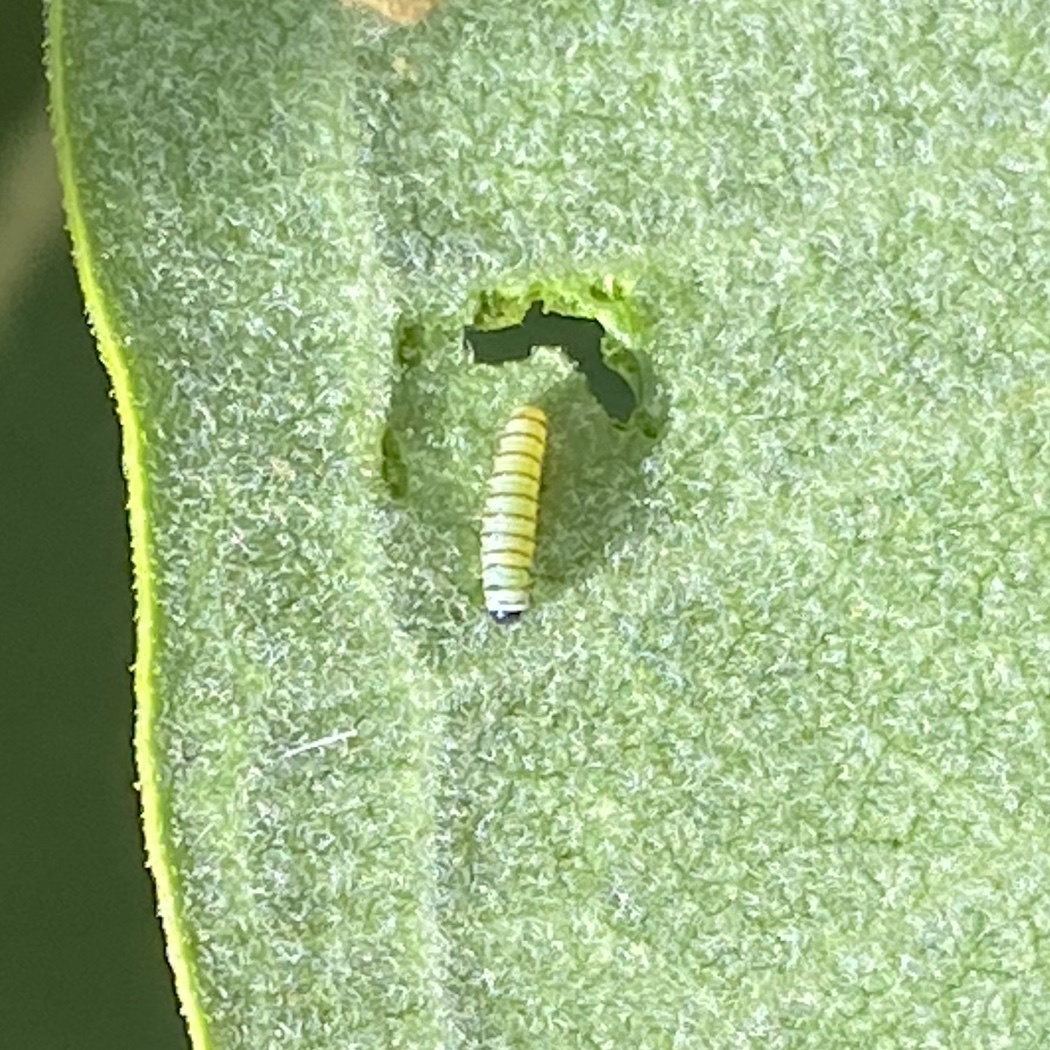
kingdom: Animalia
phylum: Arthropoda
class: Insecta
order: Lepidoptera
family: Nymphalidae
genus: Danaus
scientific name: Danaus plexippus
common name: Monarch
